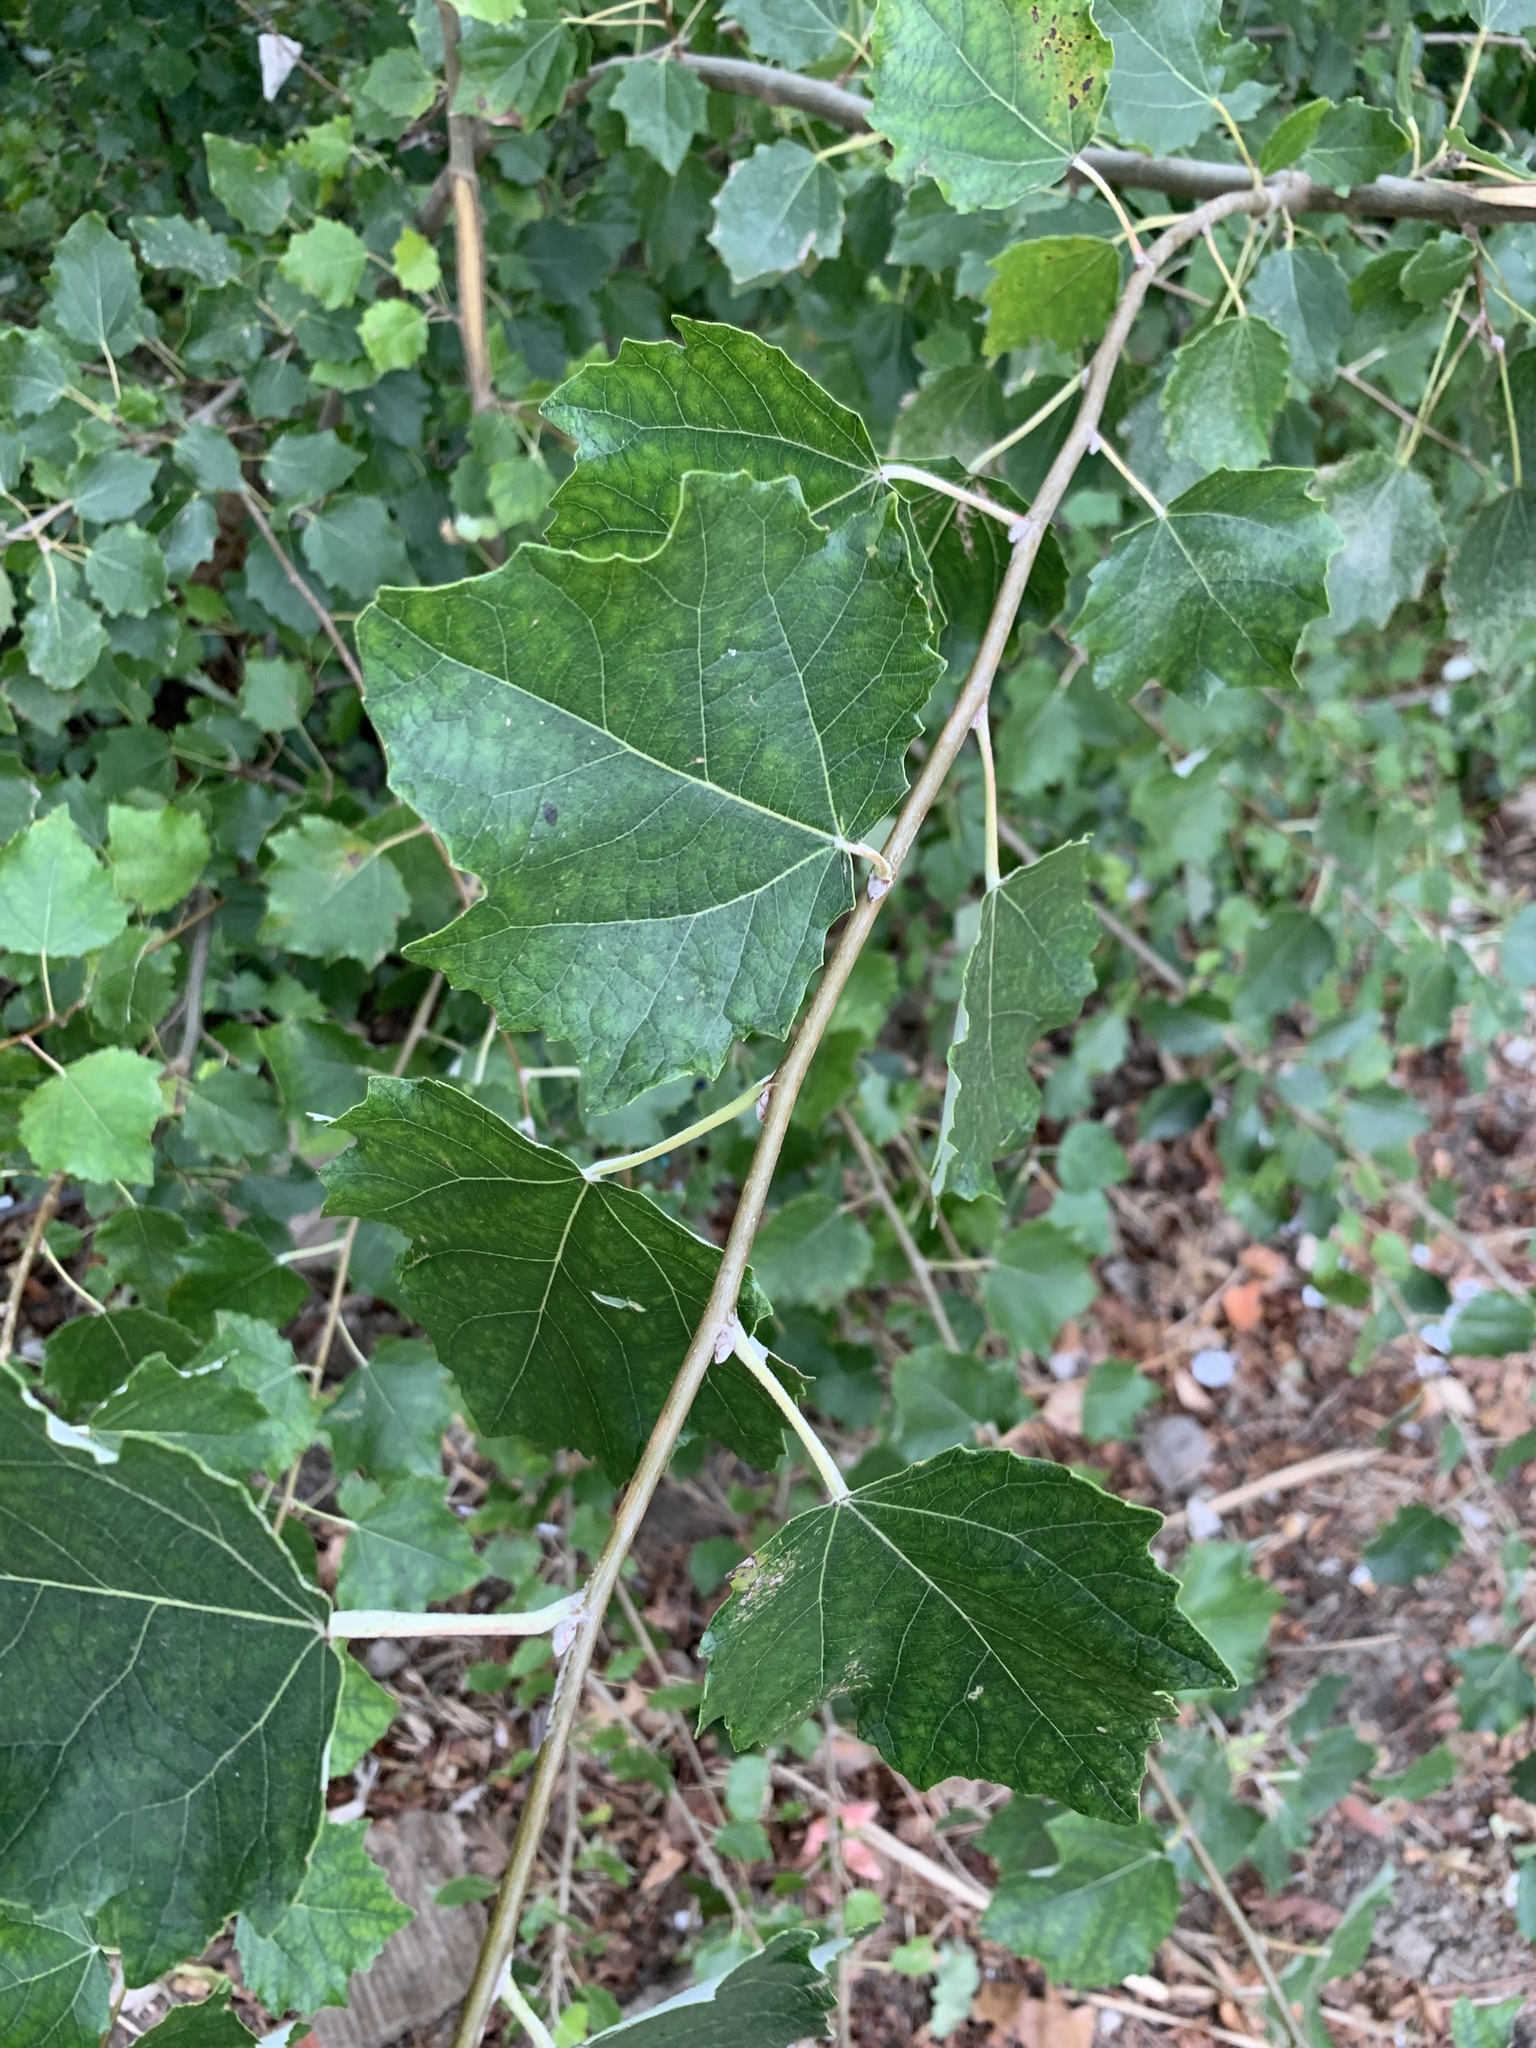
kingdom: Plantae
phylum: Tracheophyta
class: Magnoliopsida
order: Malpighiales
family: Salicaceae
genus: Populus
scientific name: Populus canescens
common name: Gray poplar
